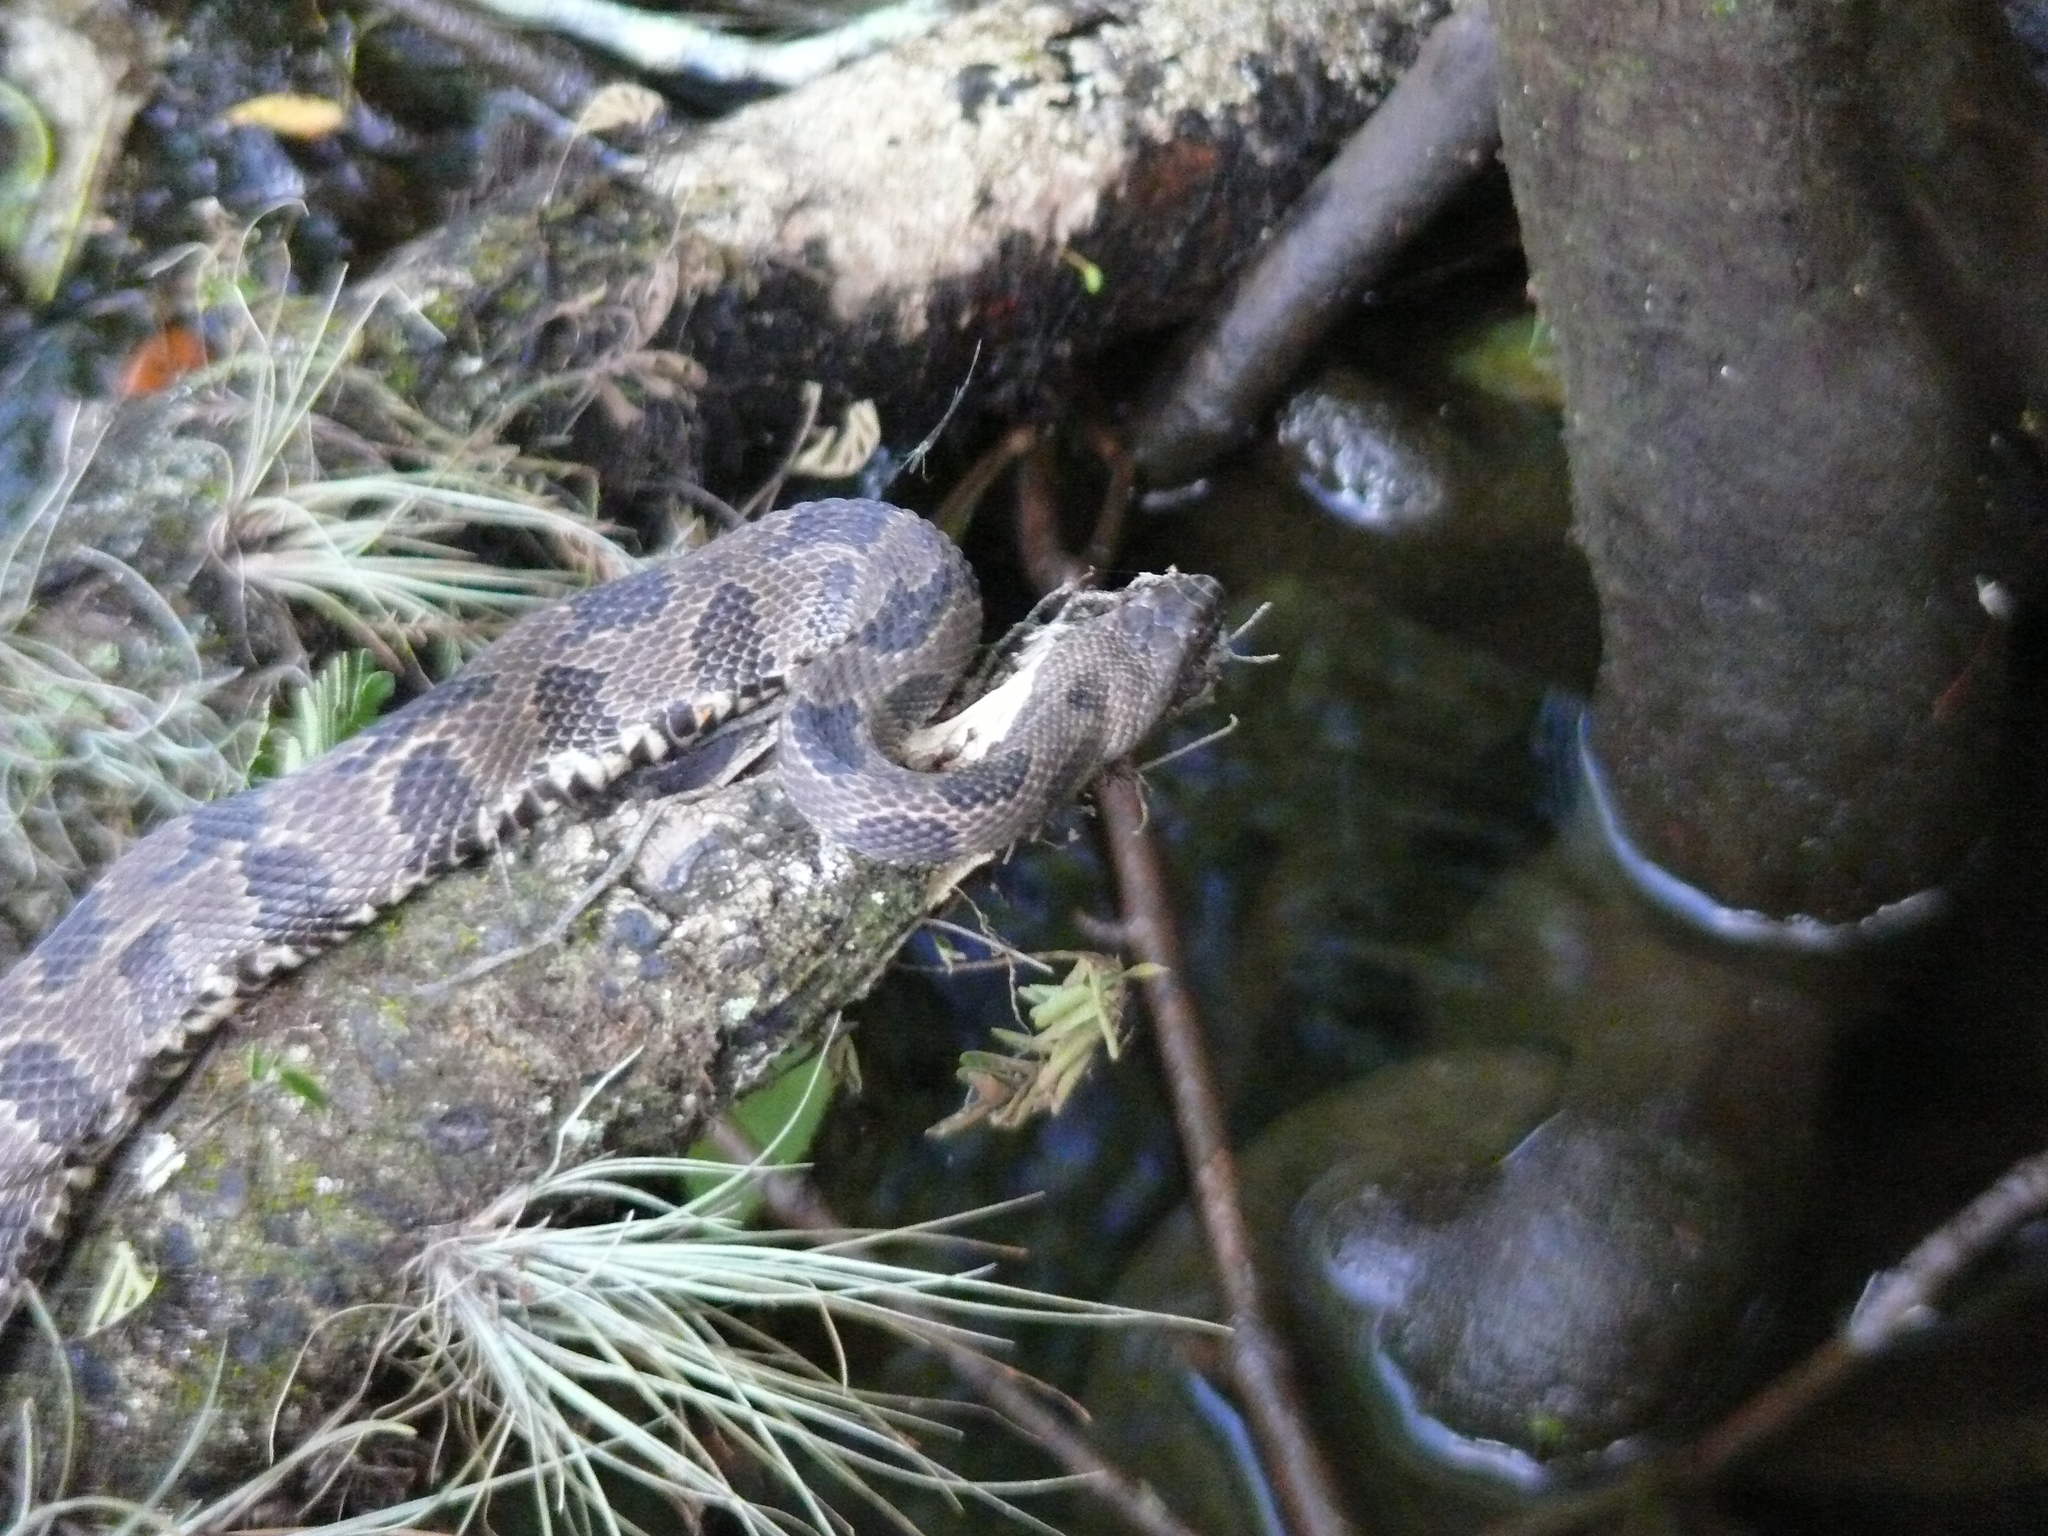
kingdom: Animalia
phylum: Chordata
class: Squamata
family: Colubridae
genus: Nerodia
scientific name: Nerodia taxispilota
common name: Brown water snake
